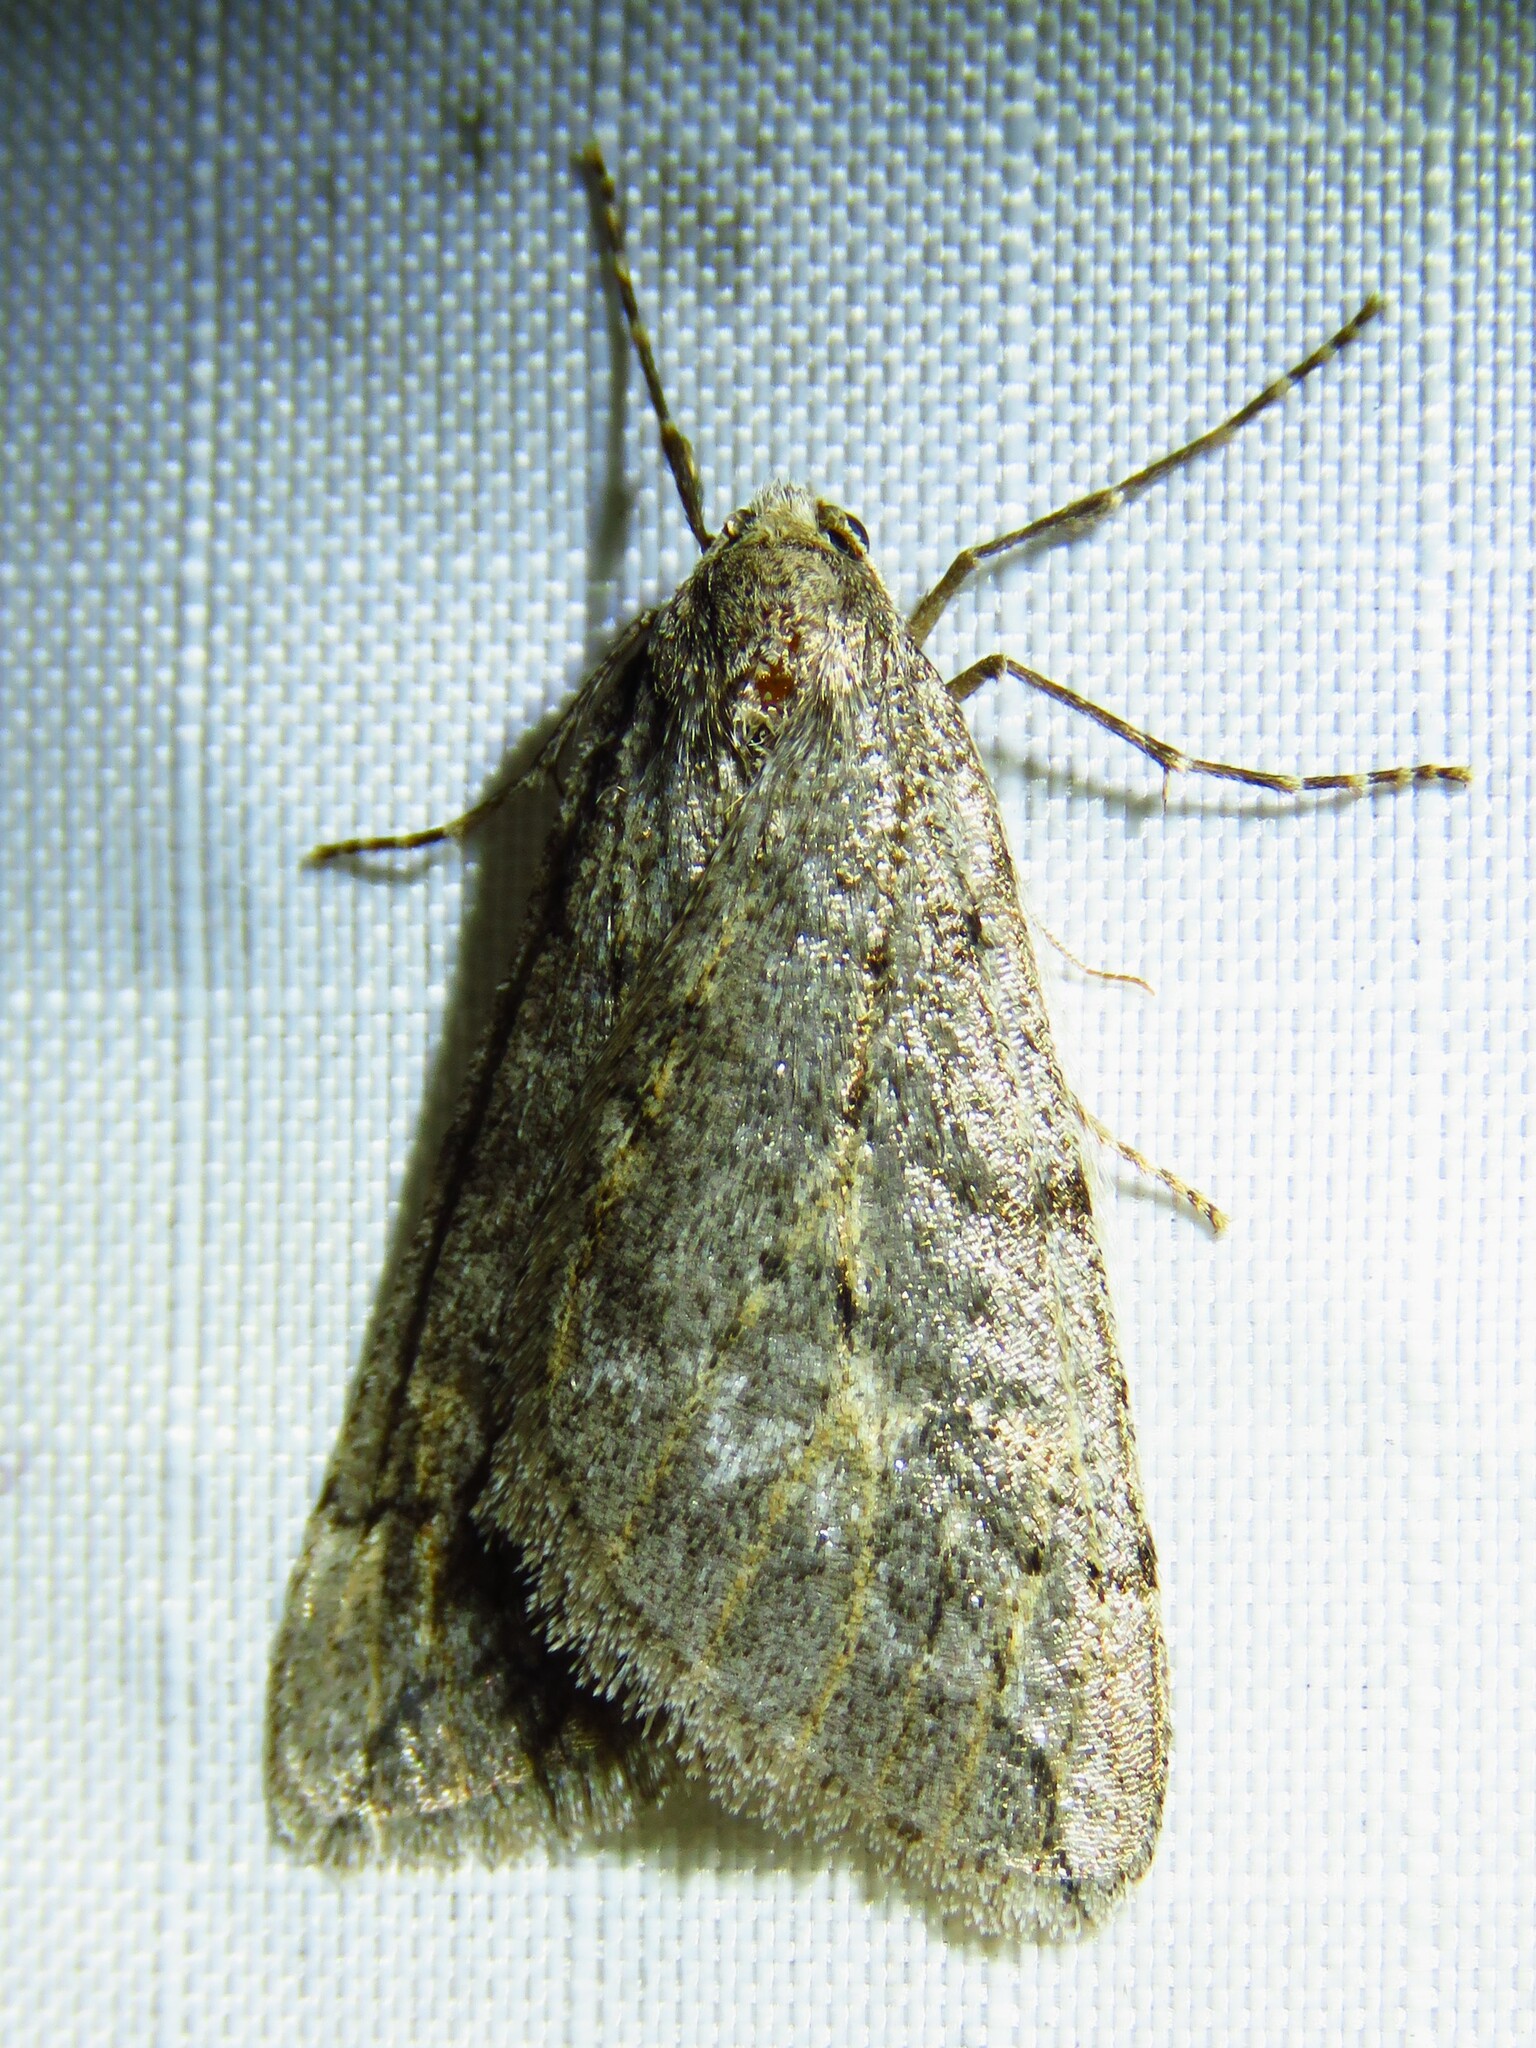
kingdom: Animalia
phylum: Arthropoda
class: Insecta
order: Lepidoptera
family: Geometridae
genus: Paleacrita
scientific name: Paleacrita vernata
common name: Spring cankerworm
